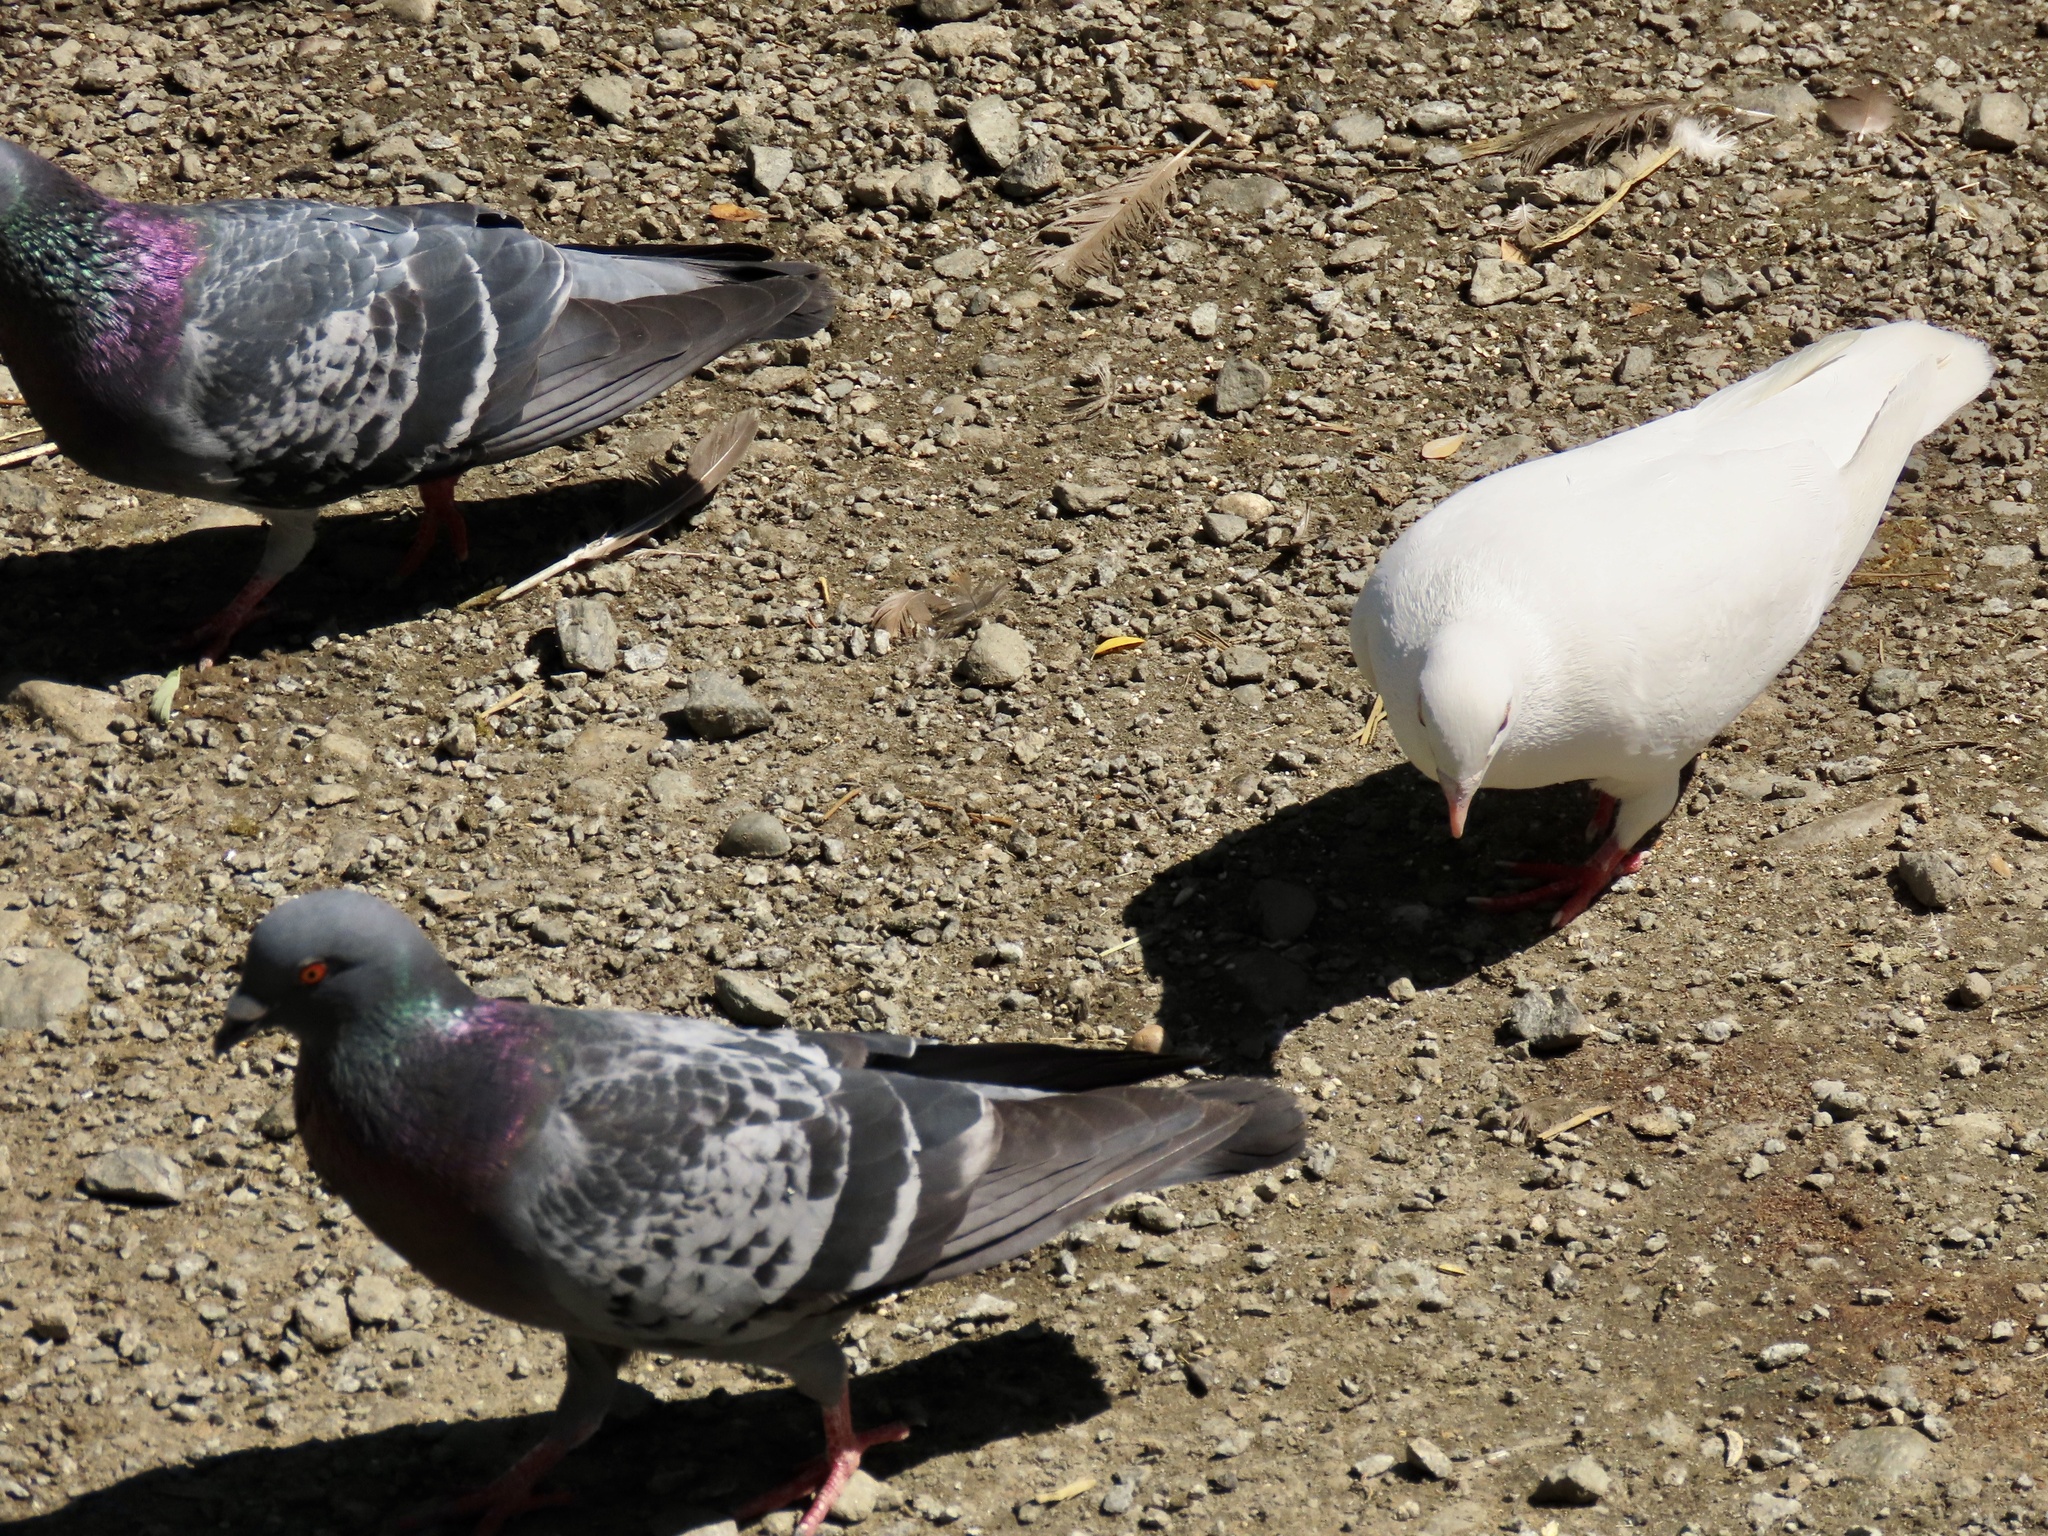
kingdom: Animalia
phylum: Chordata
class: Aves
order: Columbiformes
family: Columbidae
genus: Columba
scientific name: Columba livia
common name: Rock pigeon
